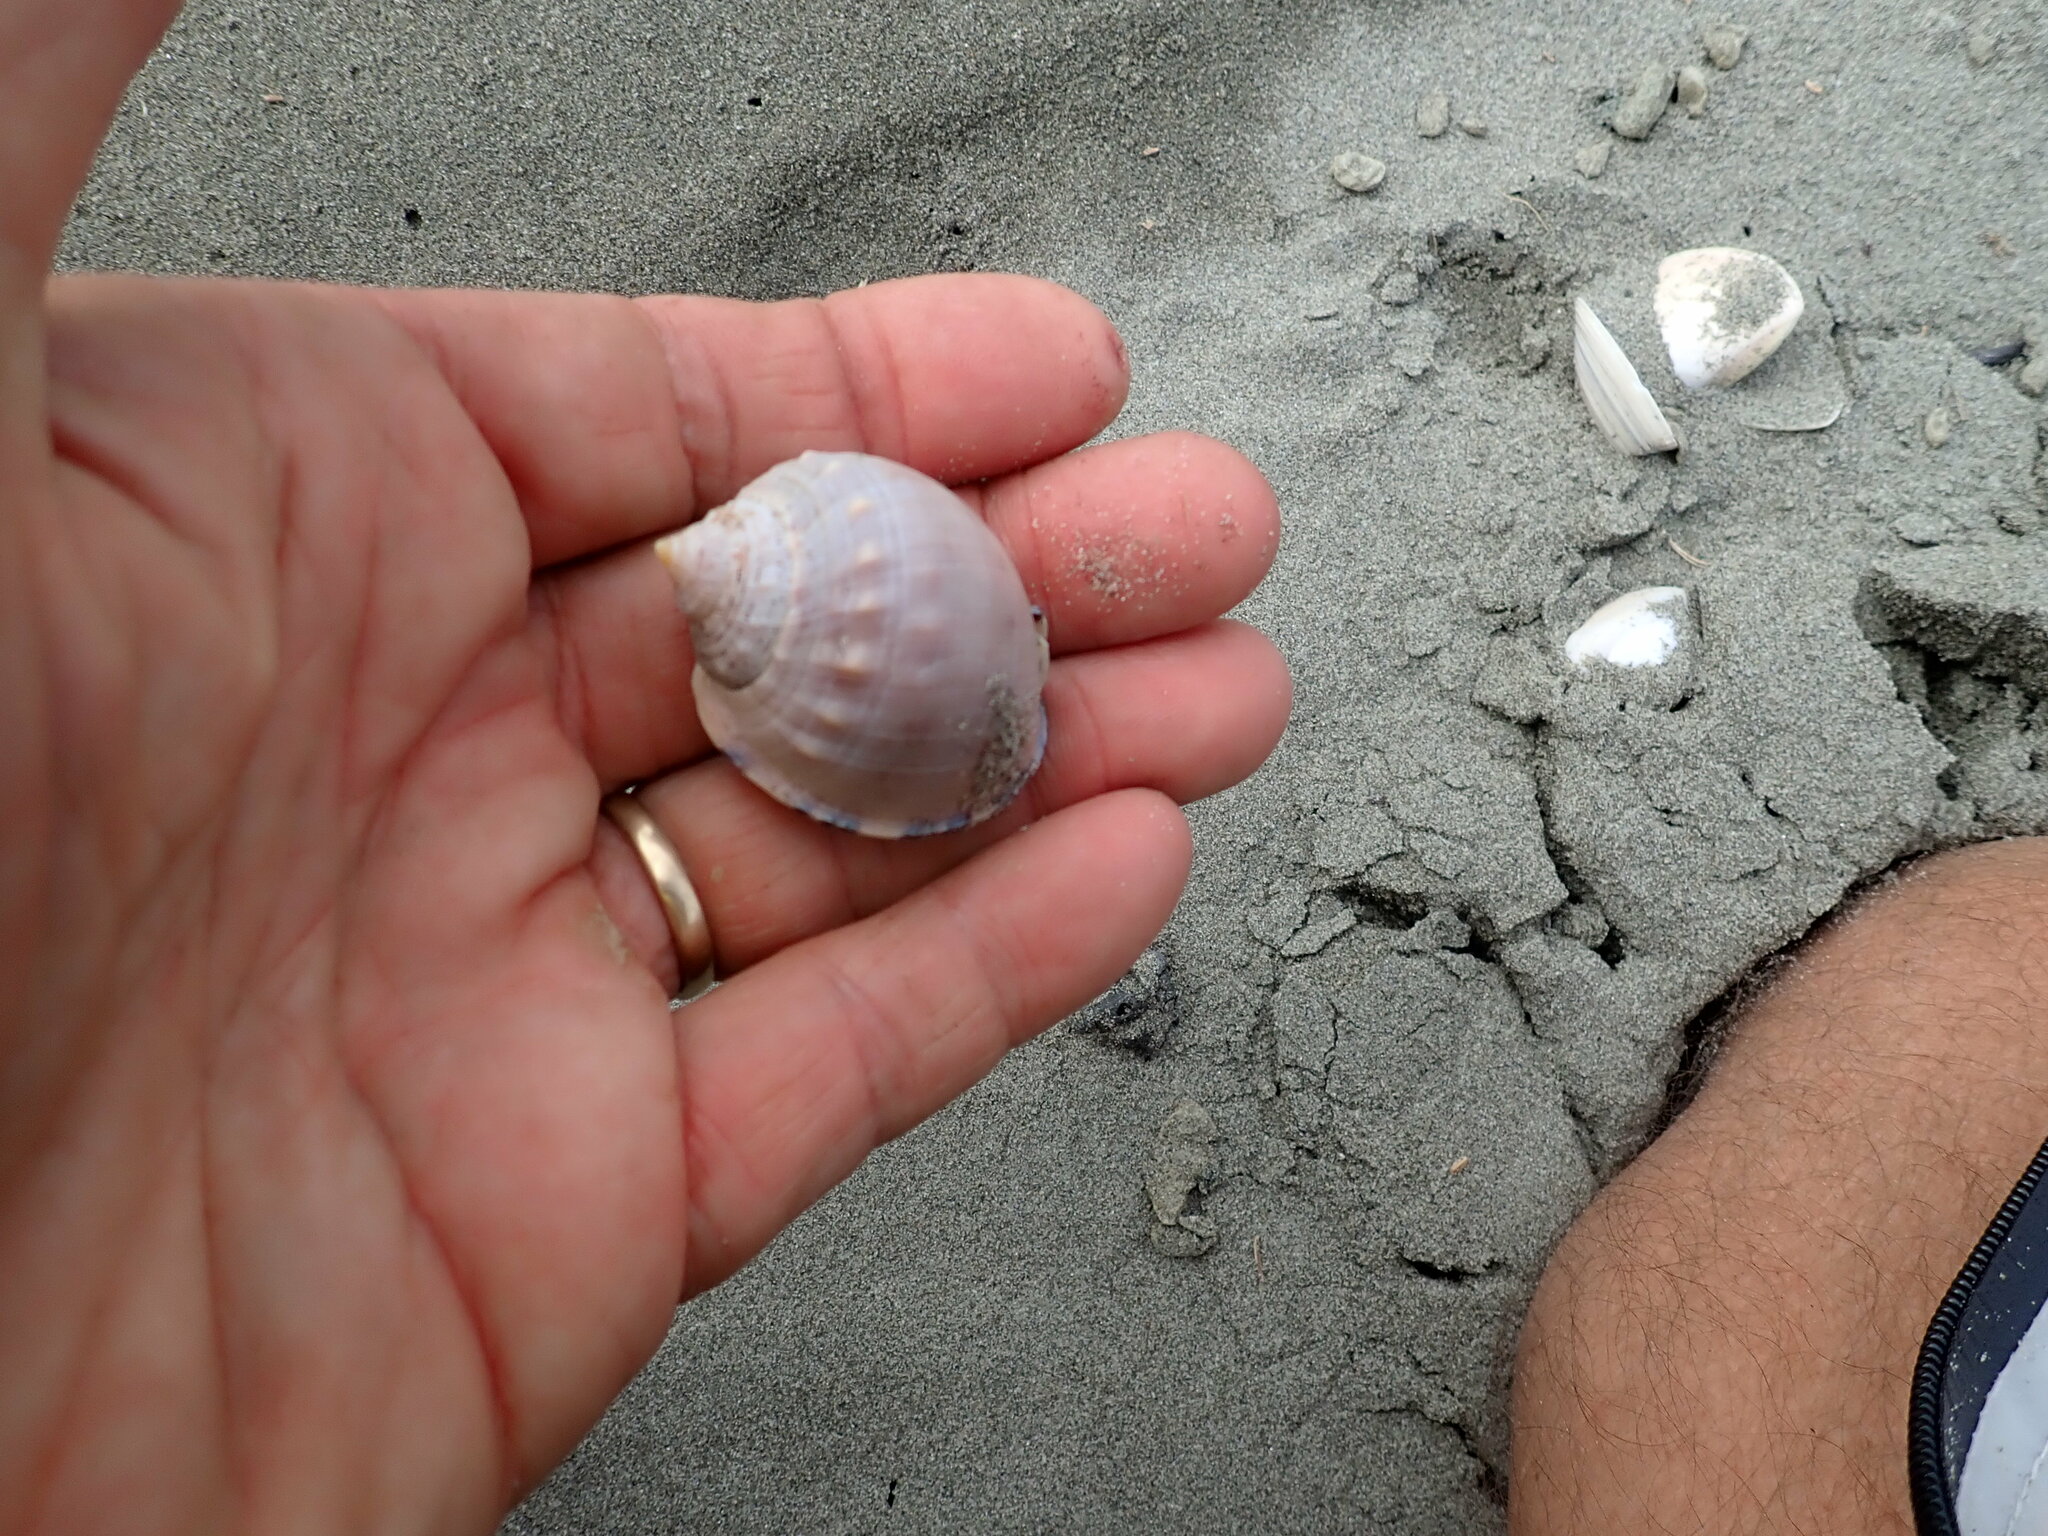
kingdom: Animalia
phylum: Mollusca
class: Gastropoda
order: Littorinimorpha
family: Cassidae
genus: Semicassis
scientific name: Semicassis pyrum
